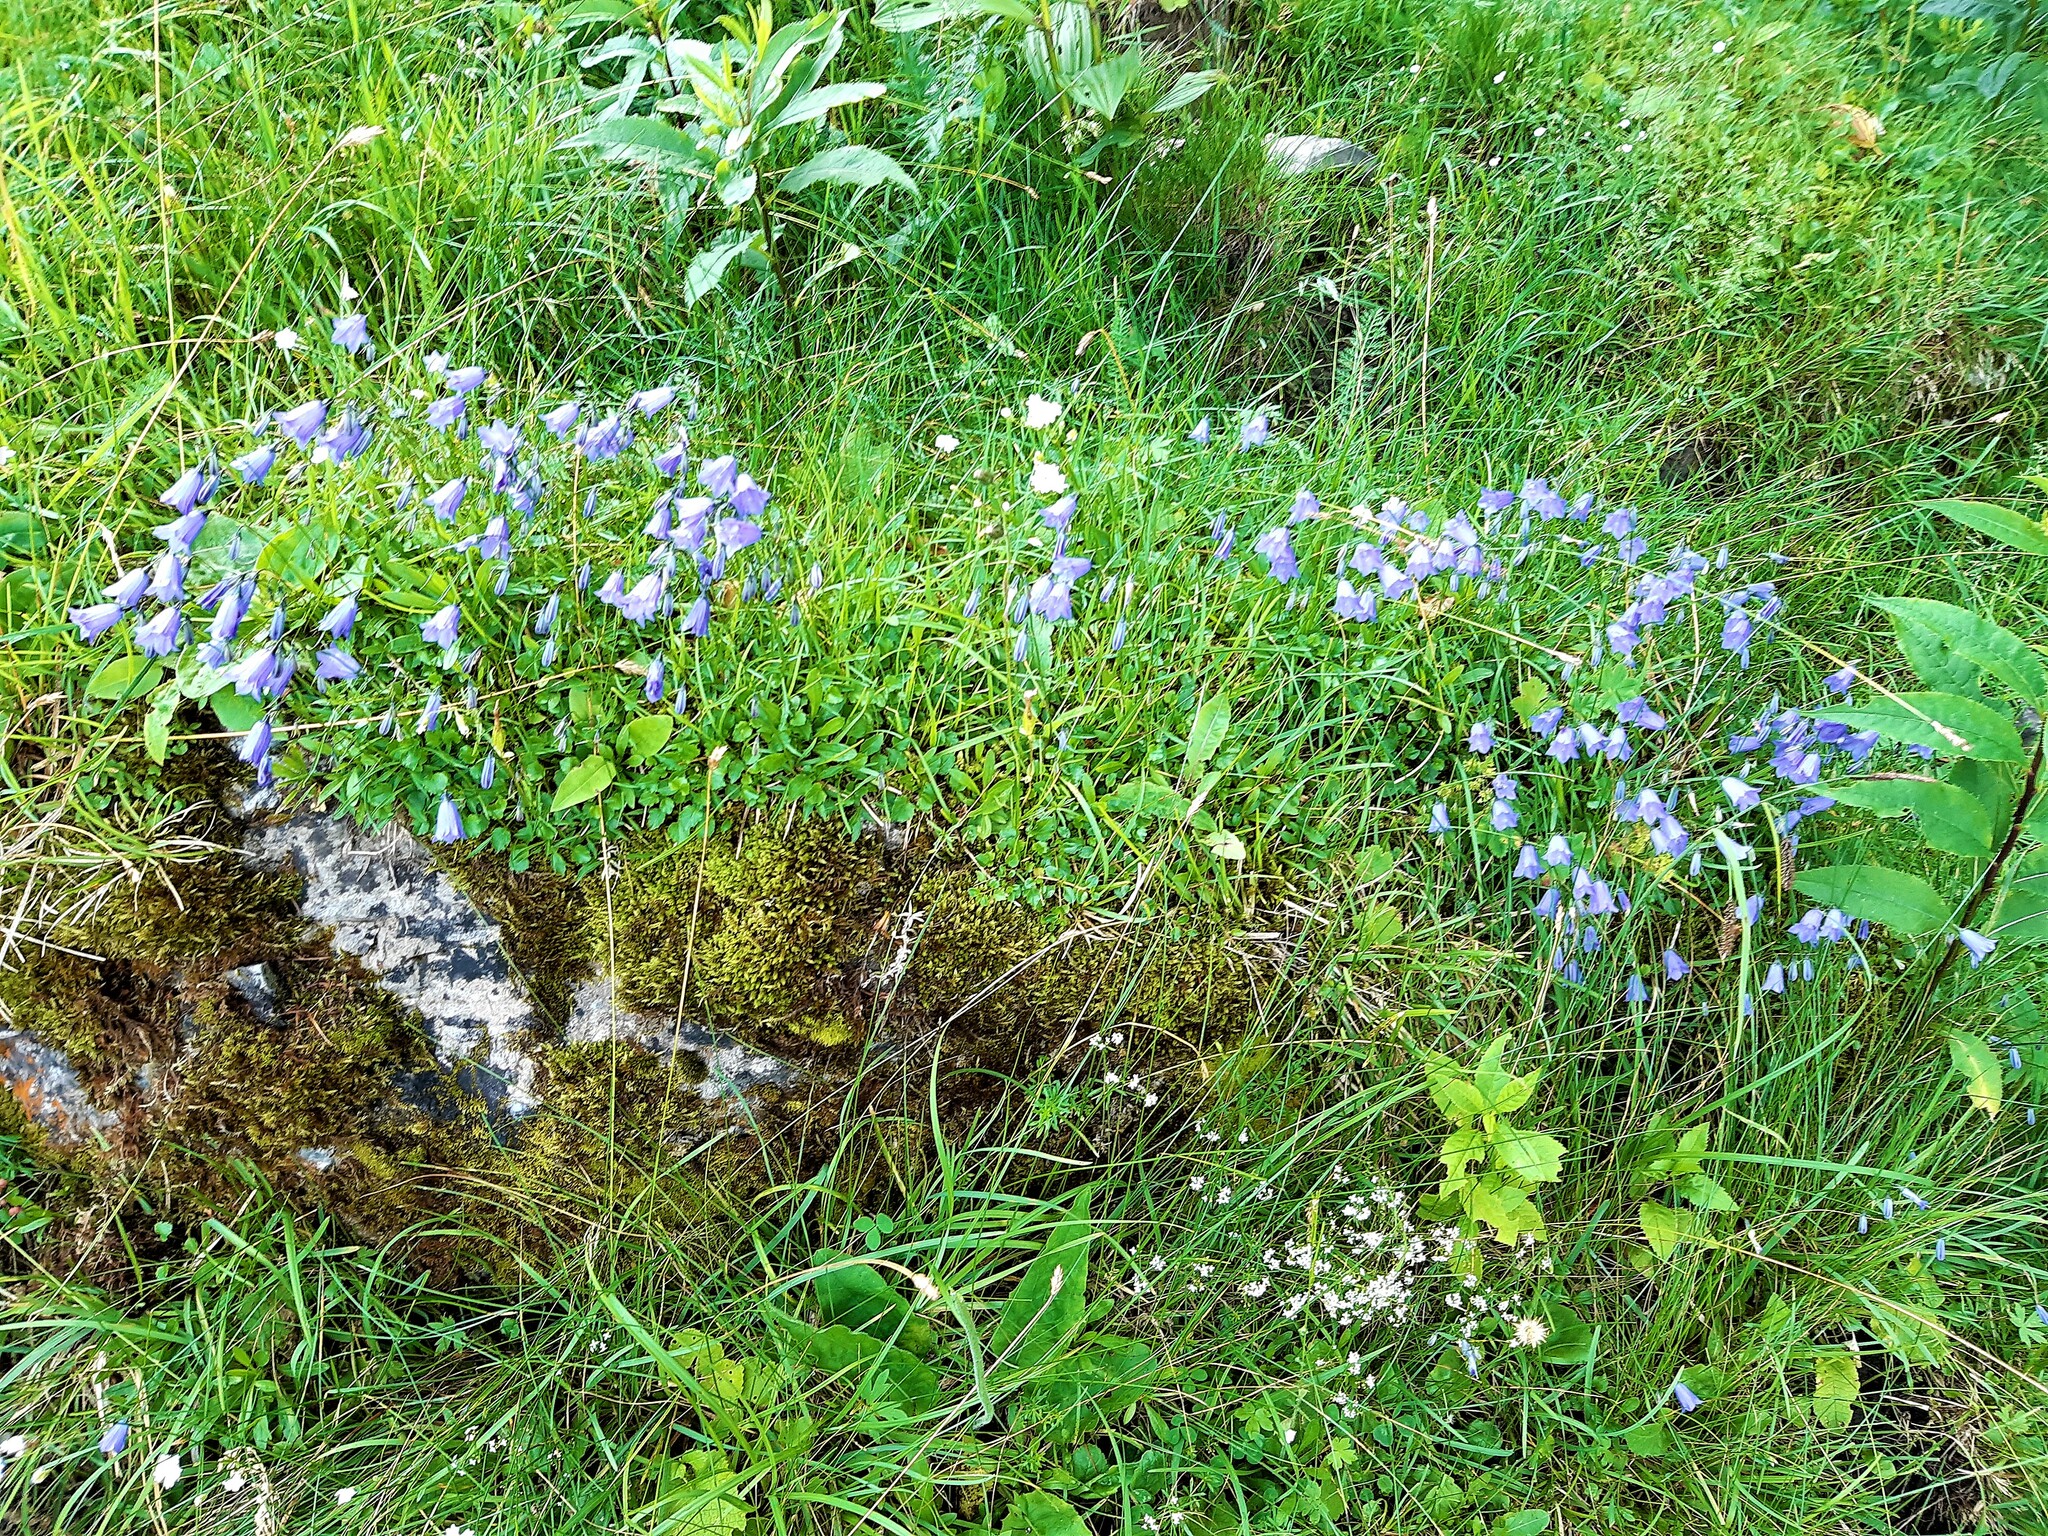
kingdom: Plantae
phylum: Tracheophyta
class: Magnoliopsida
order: Asterales
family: Campanulaceae
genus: Campanula
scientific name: Campanula cochleariifolia
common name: Fairies'-thimbles
